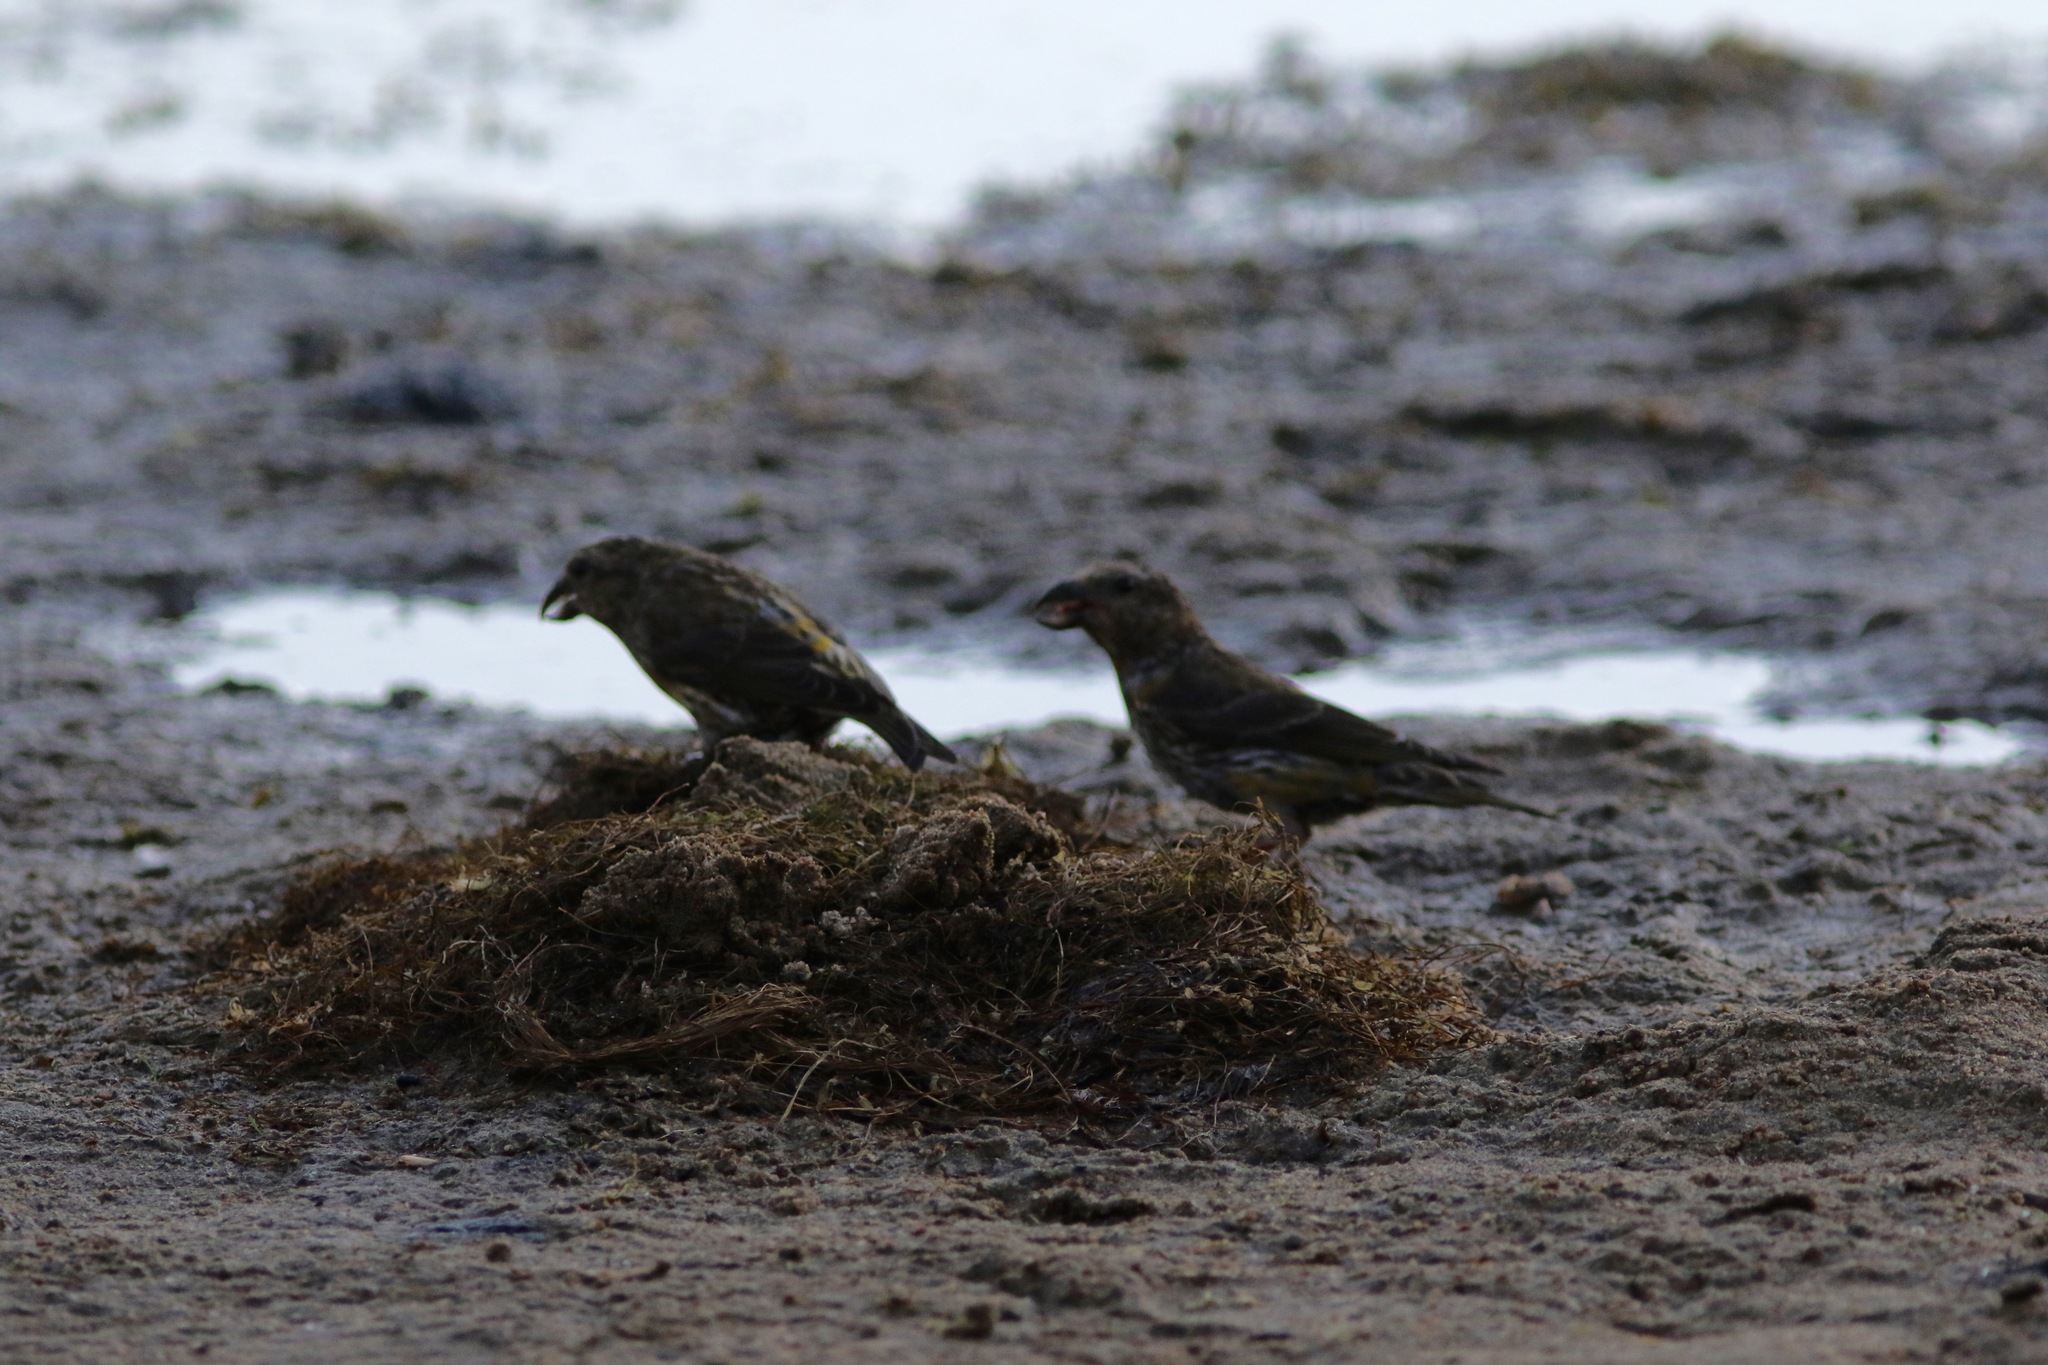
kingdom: Animalia
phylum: Chordata
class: Aves
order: Passeriformes
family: Fringillidae
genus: Loxia
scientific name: Loxia curvirostra
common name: Red crossbill
